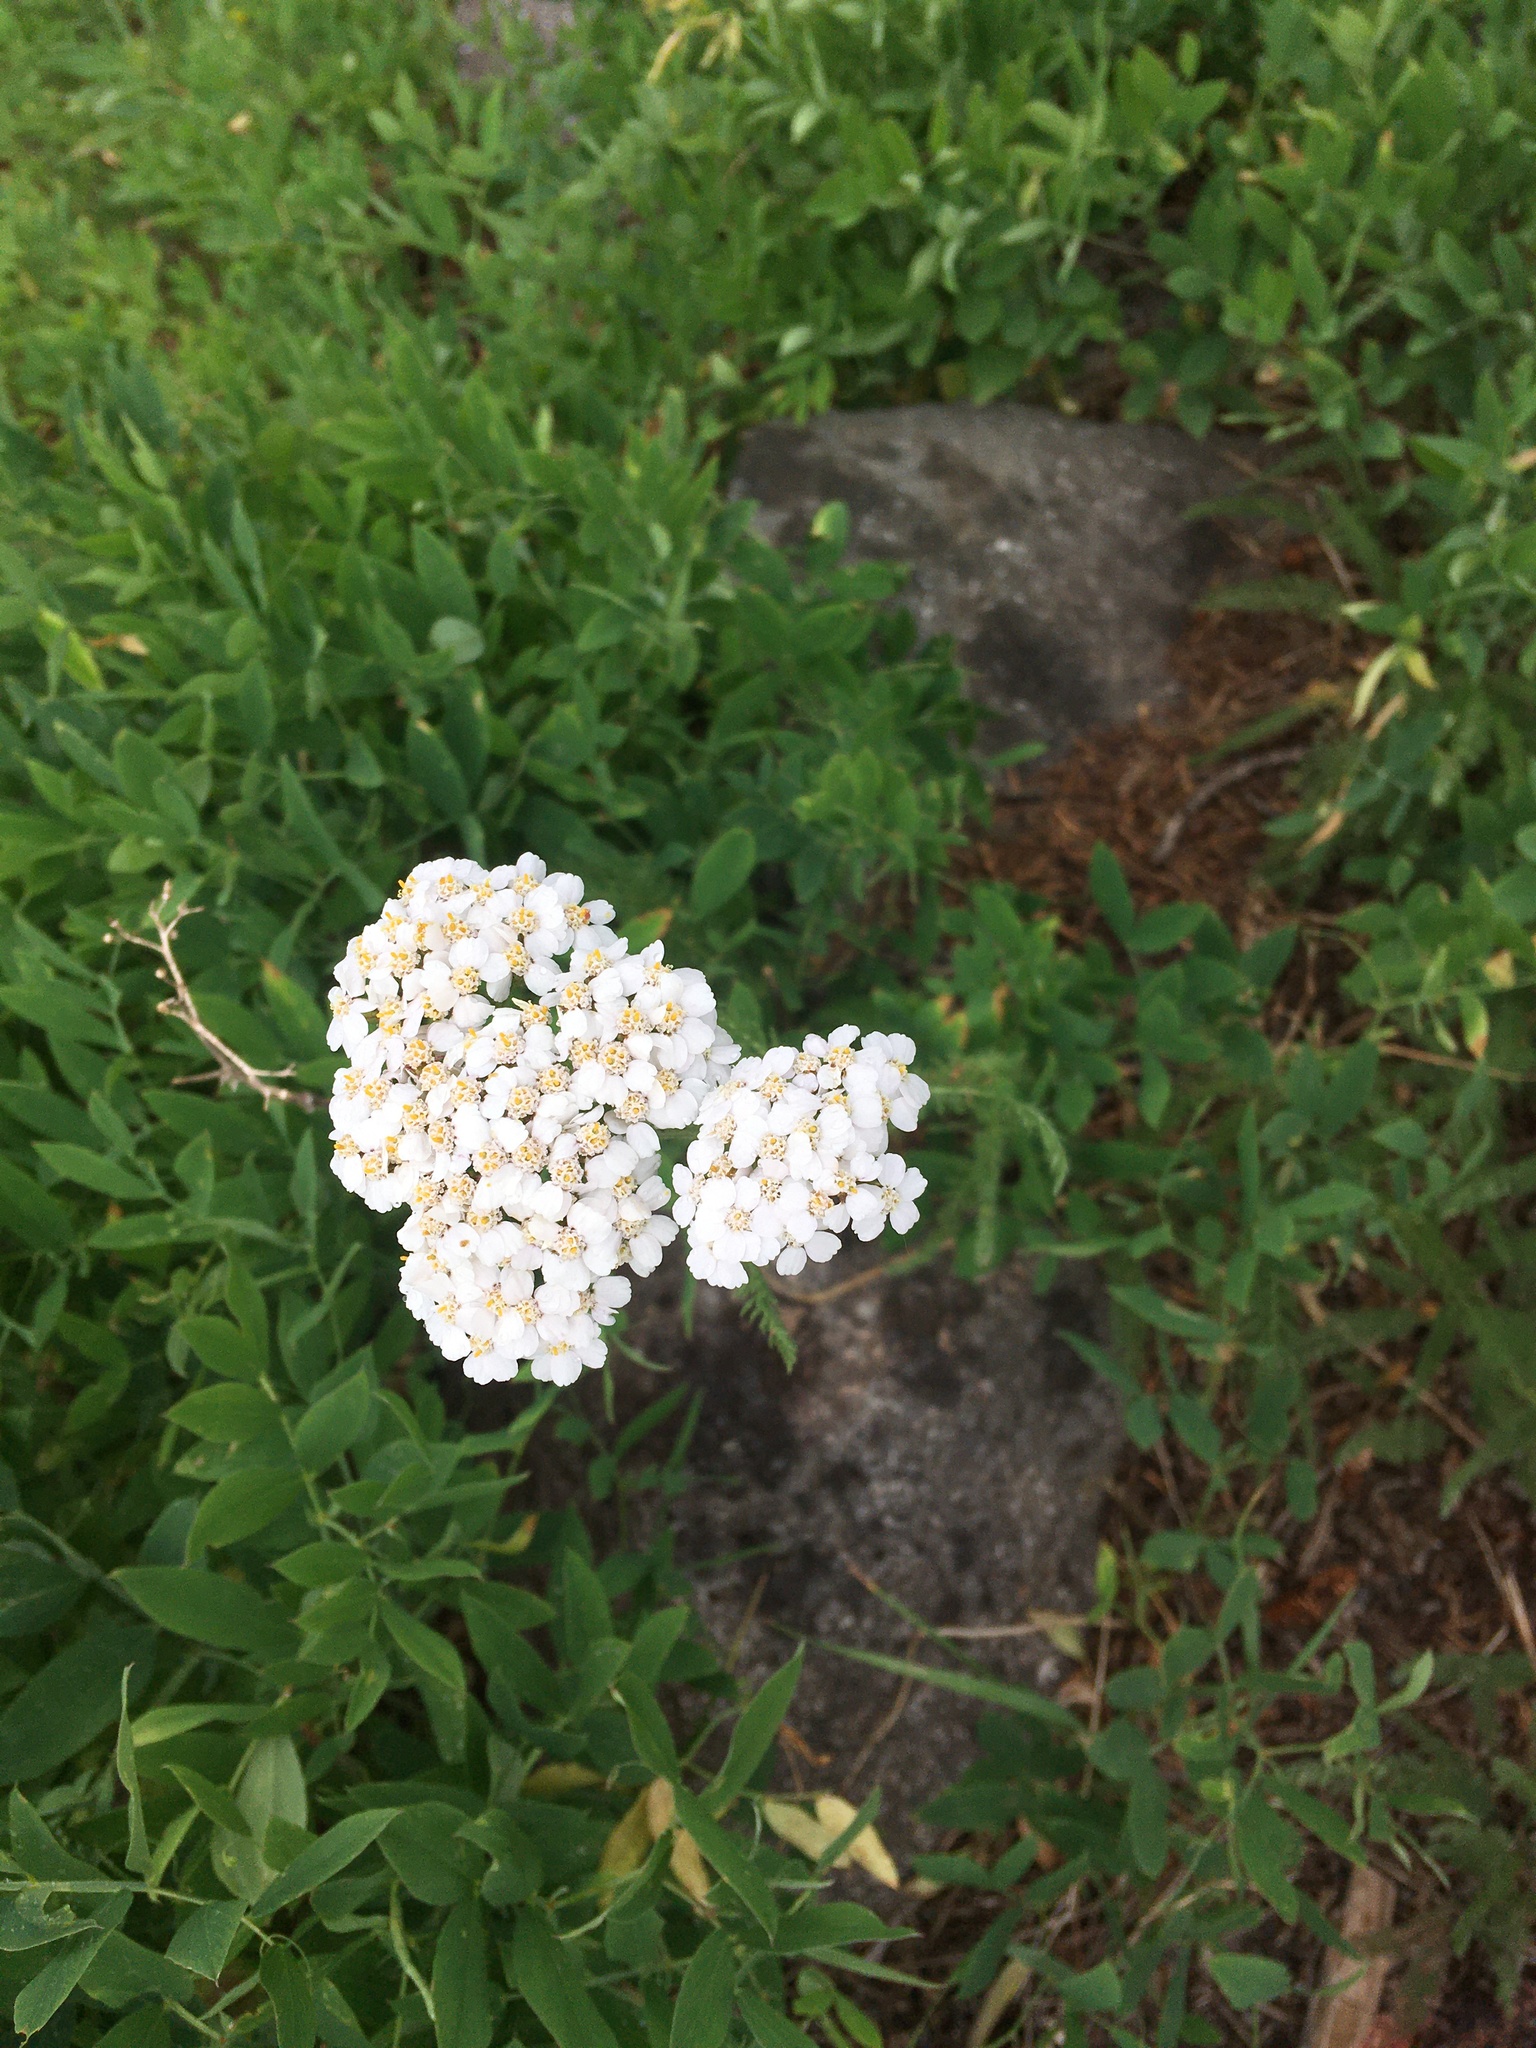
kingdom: Plantae
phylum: Tracheophyta
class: Magnoliopsida
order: Asterales
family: Asteraceae
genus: Achillea
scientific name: Achillea millefolium
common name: Yarrow
